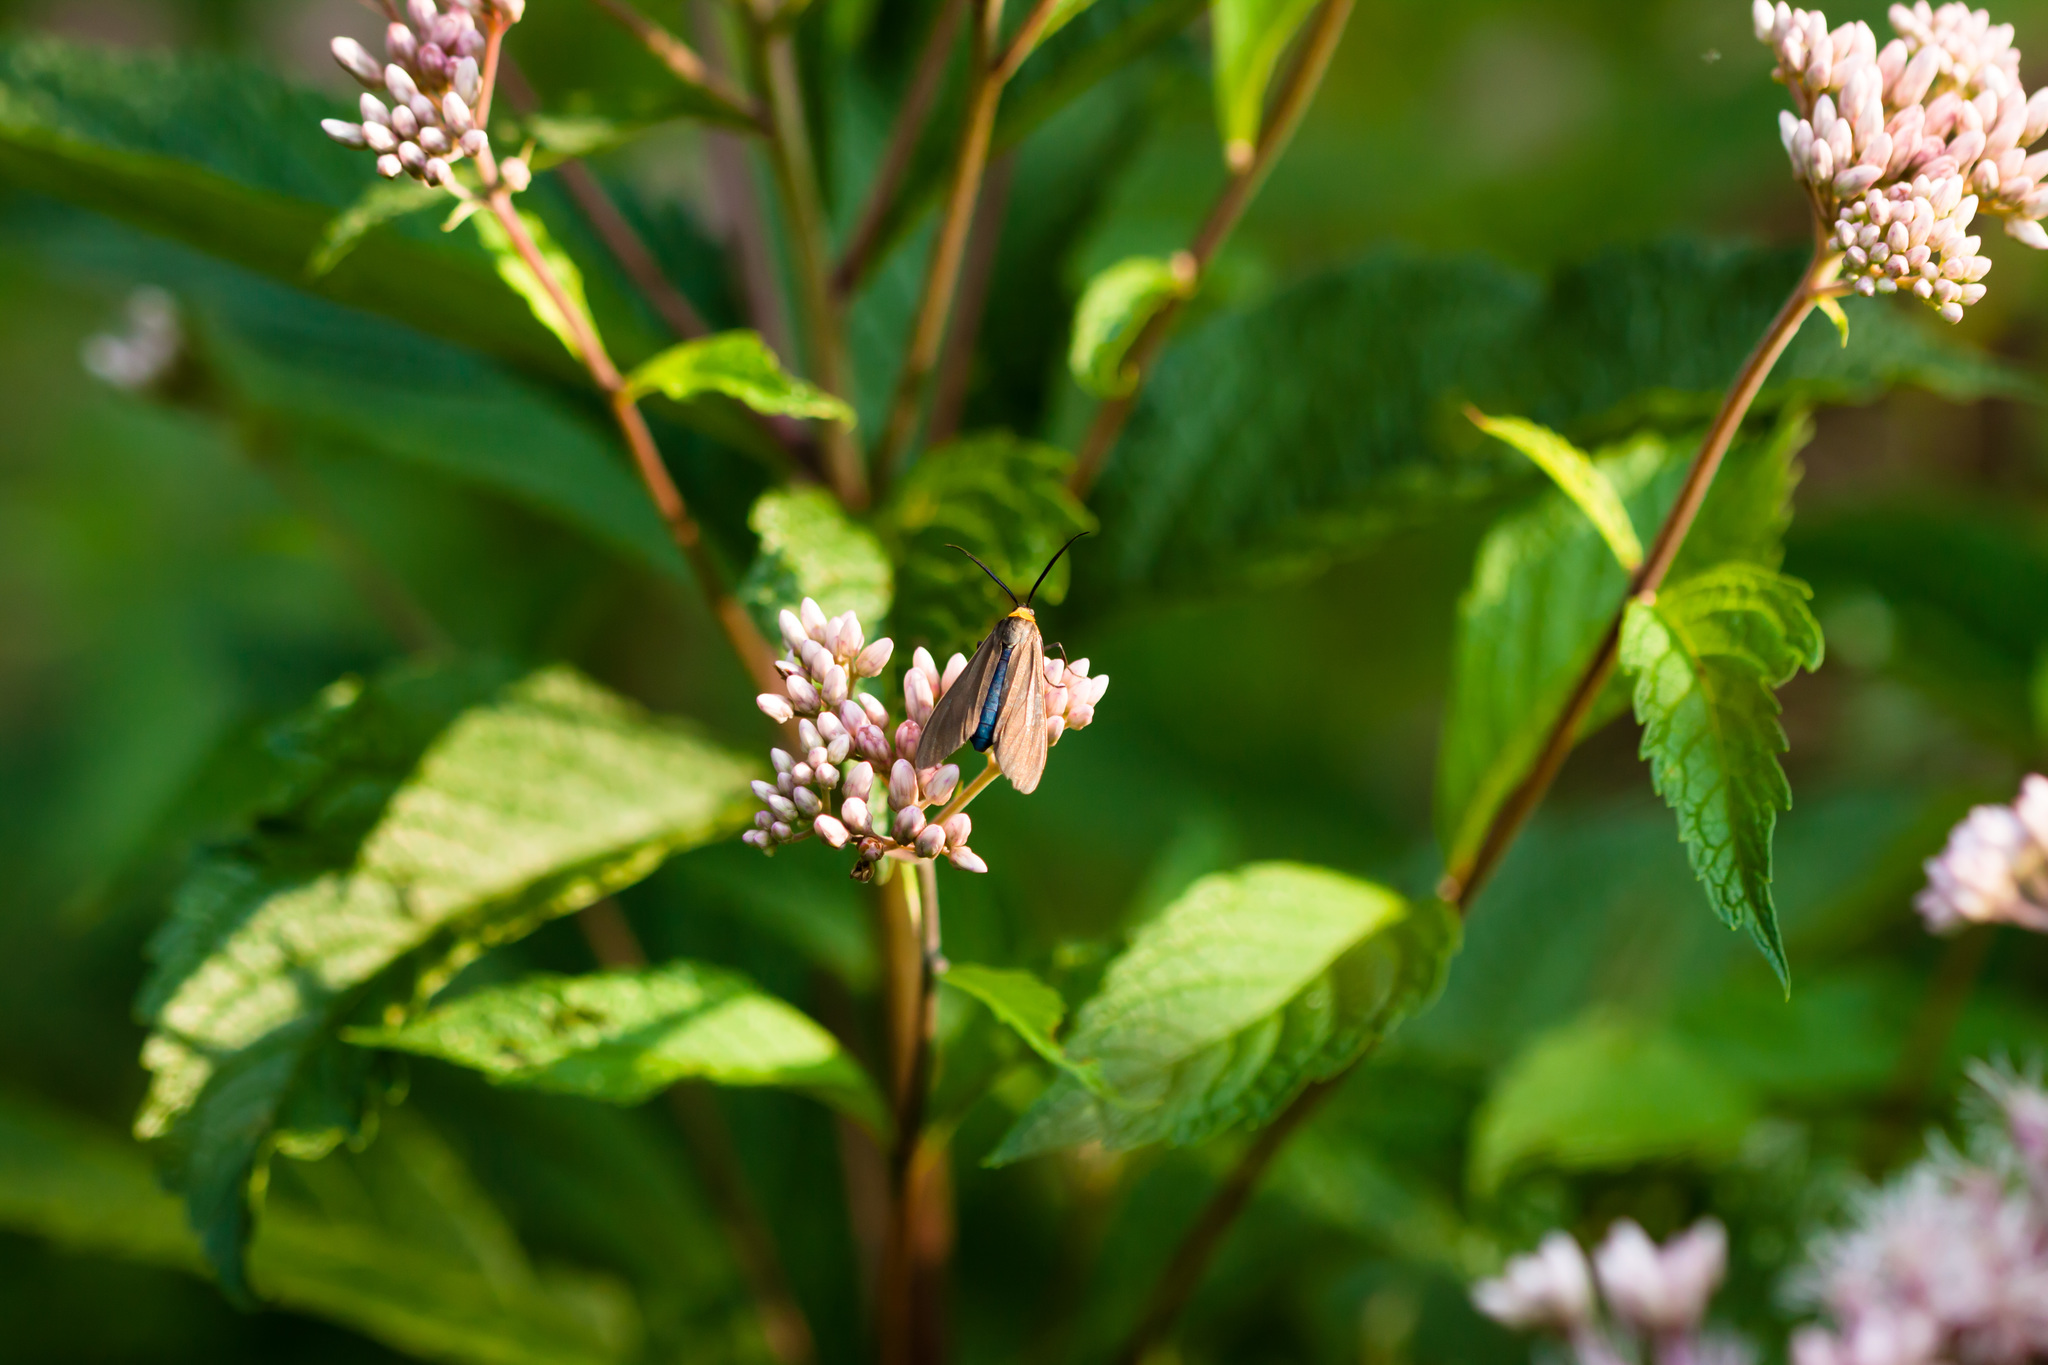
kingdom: Animalia
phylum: Arthropoda
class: Insecta
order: Lepidoptera
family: Erebidae
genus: Cisseps
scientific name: Cisseps fulvicollis
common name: Yellow-collared scape moth
